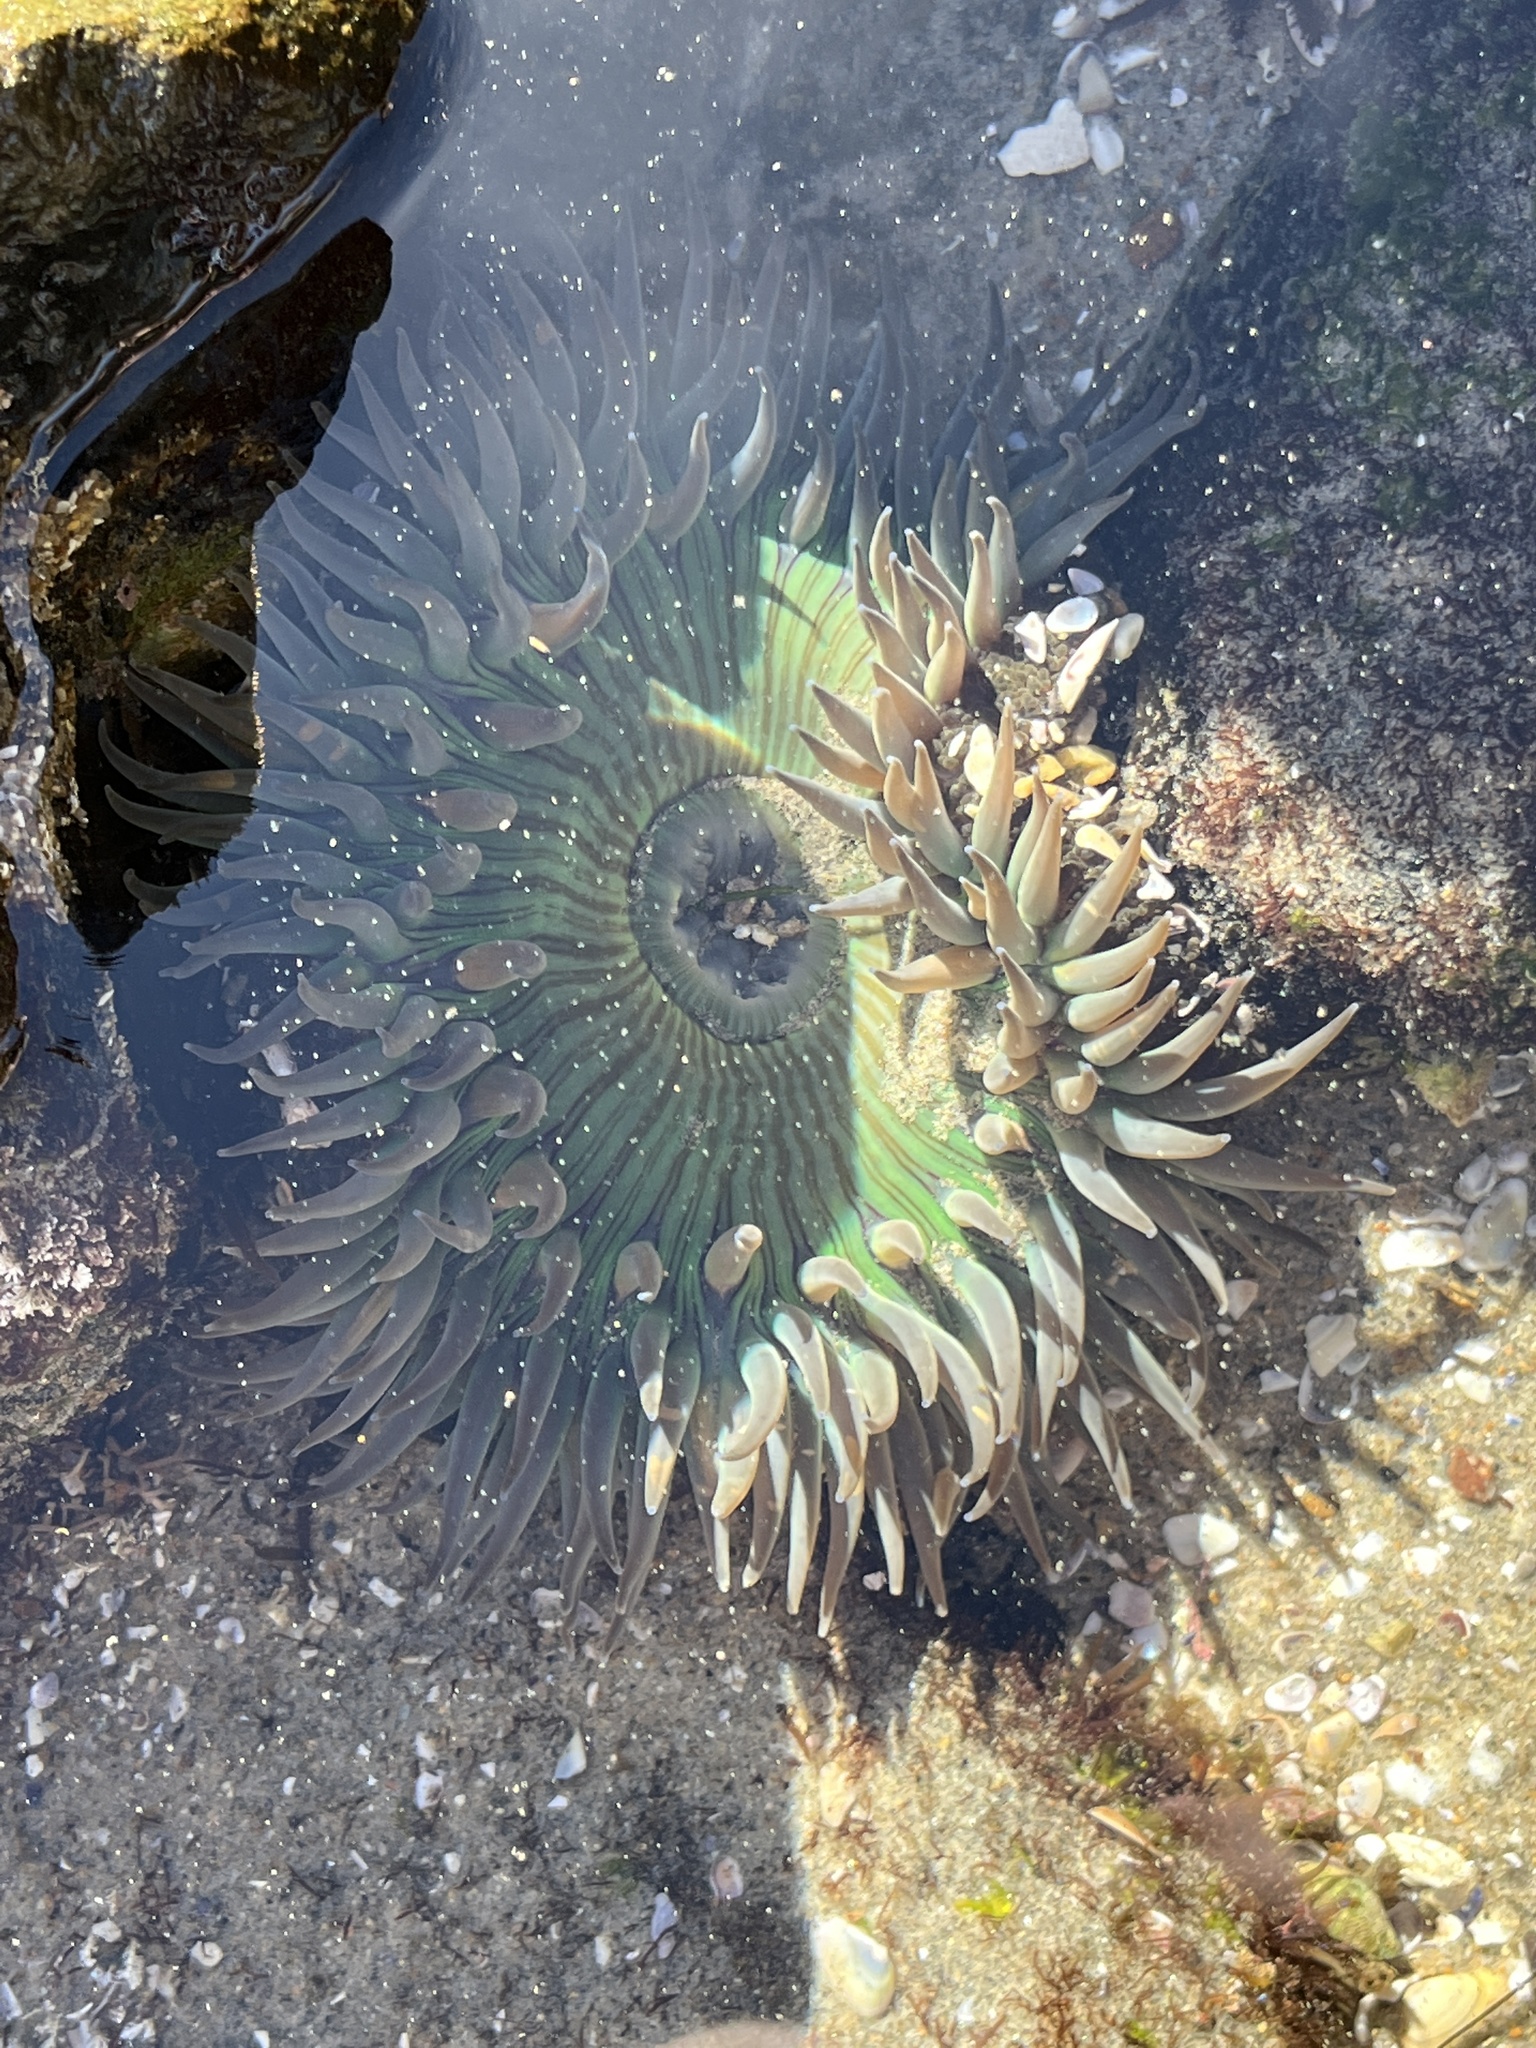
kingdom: Animalia
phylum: Cnidaria
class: Anthozoa
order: Actiniaria
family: Actiniidae
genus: Anthopleura
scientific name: Anthopleura sola
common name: Sun anemone
